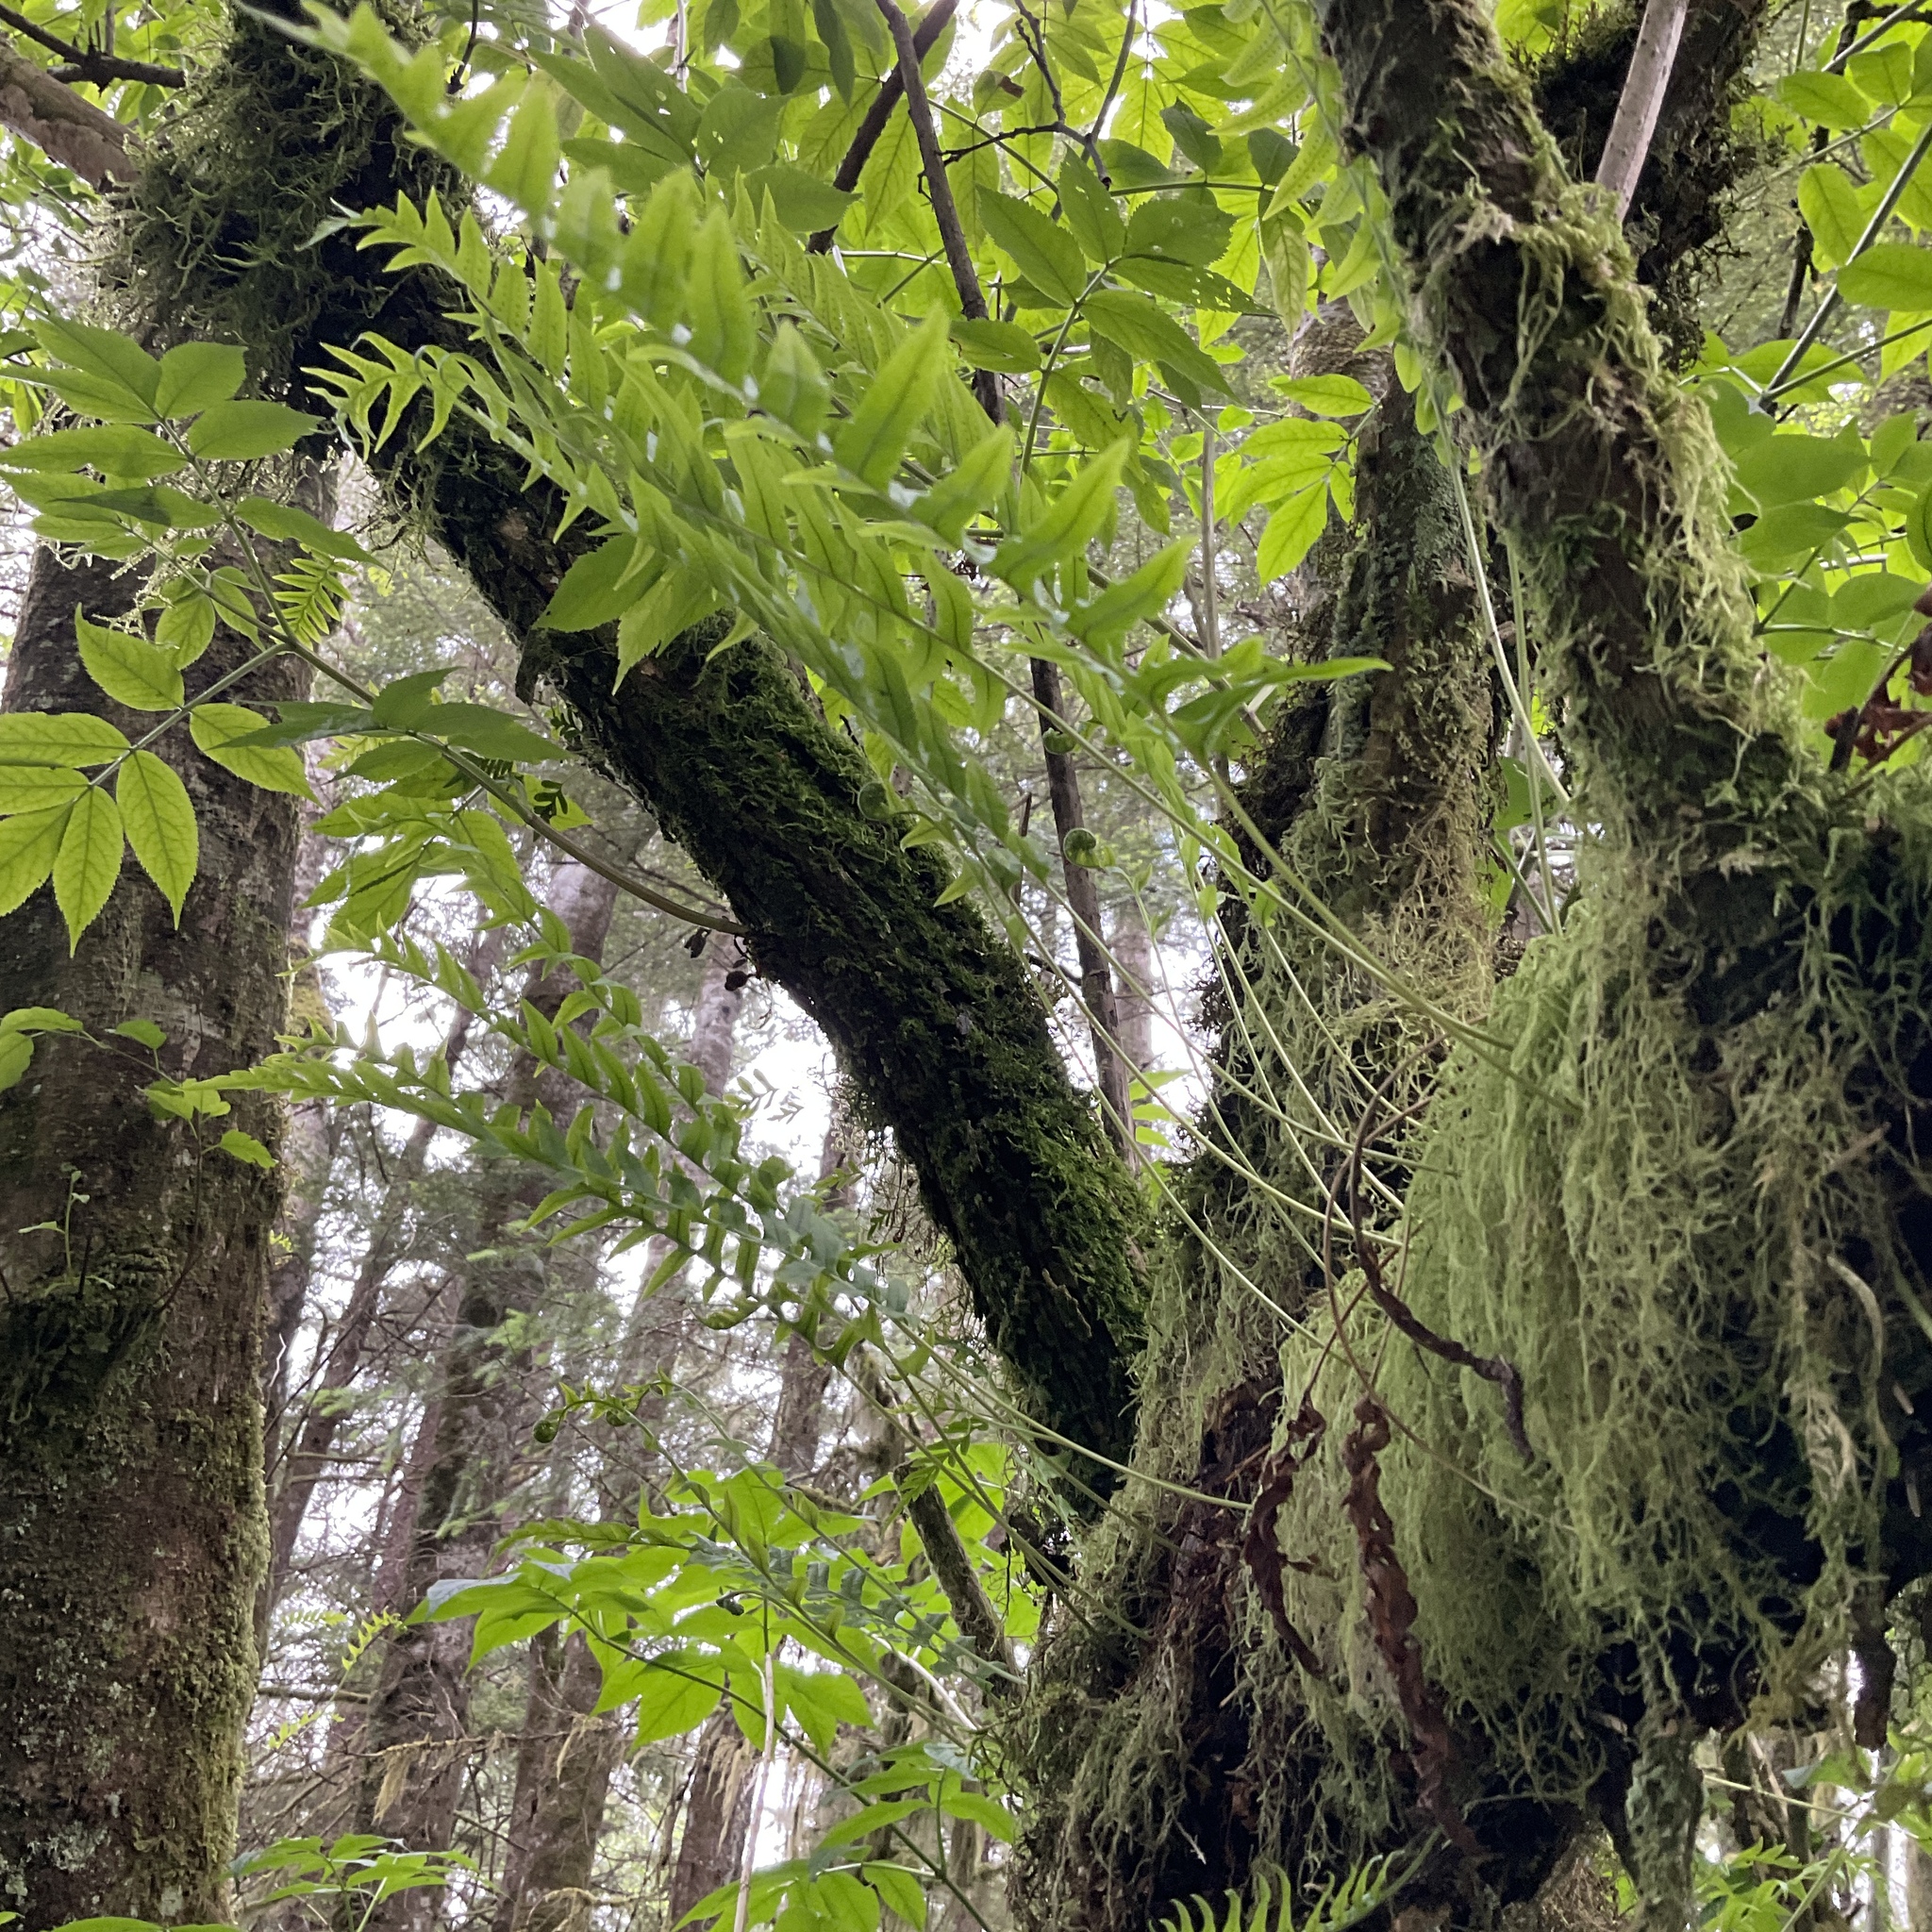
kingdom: Plantae
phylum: Tracheophyta
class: Polypodiopsida
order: Polypodiales
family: Polypodiaceae
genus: Polypodium
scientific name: Polypodium glycyrrhiza
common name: Licorice fern
